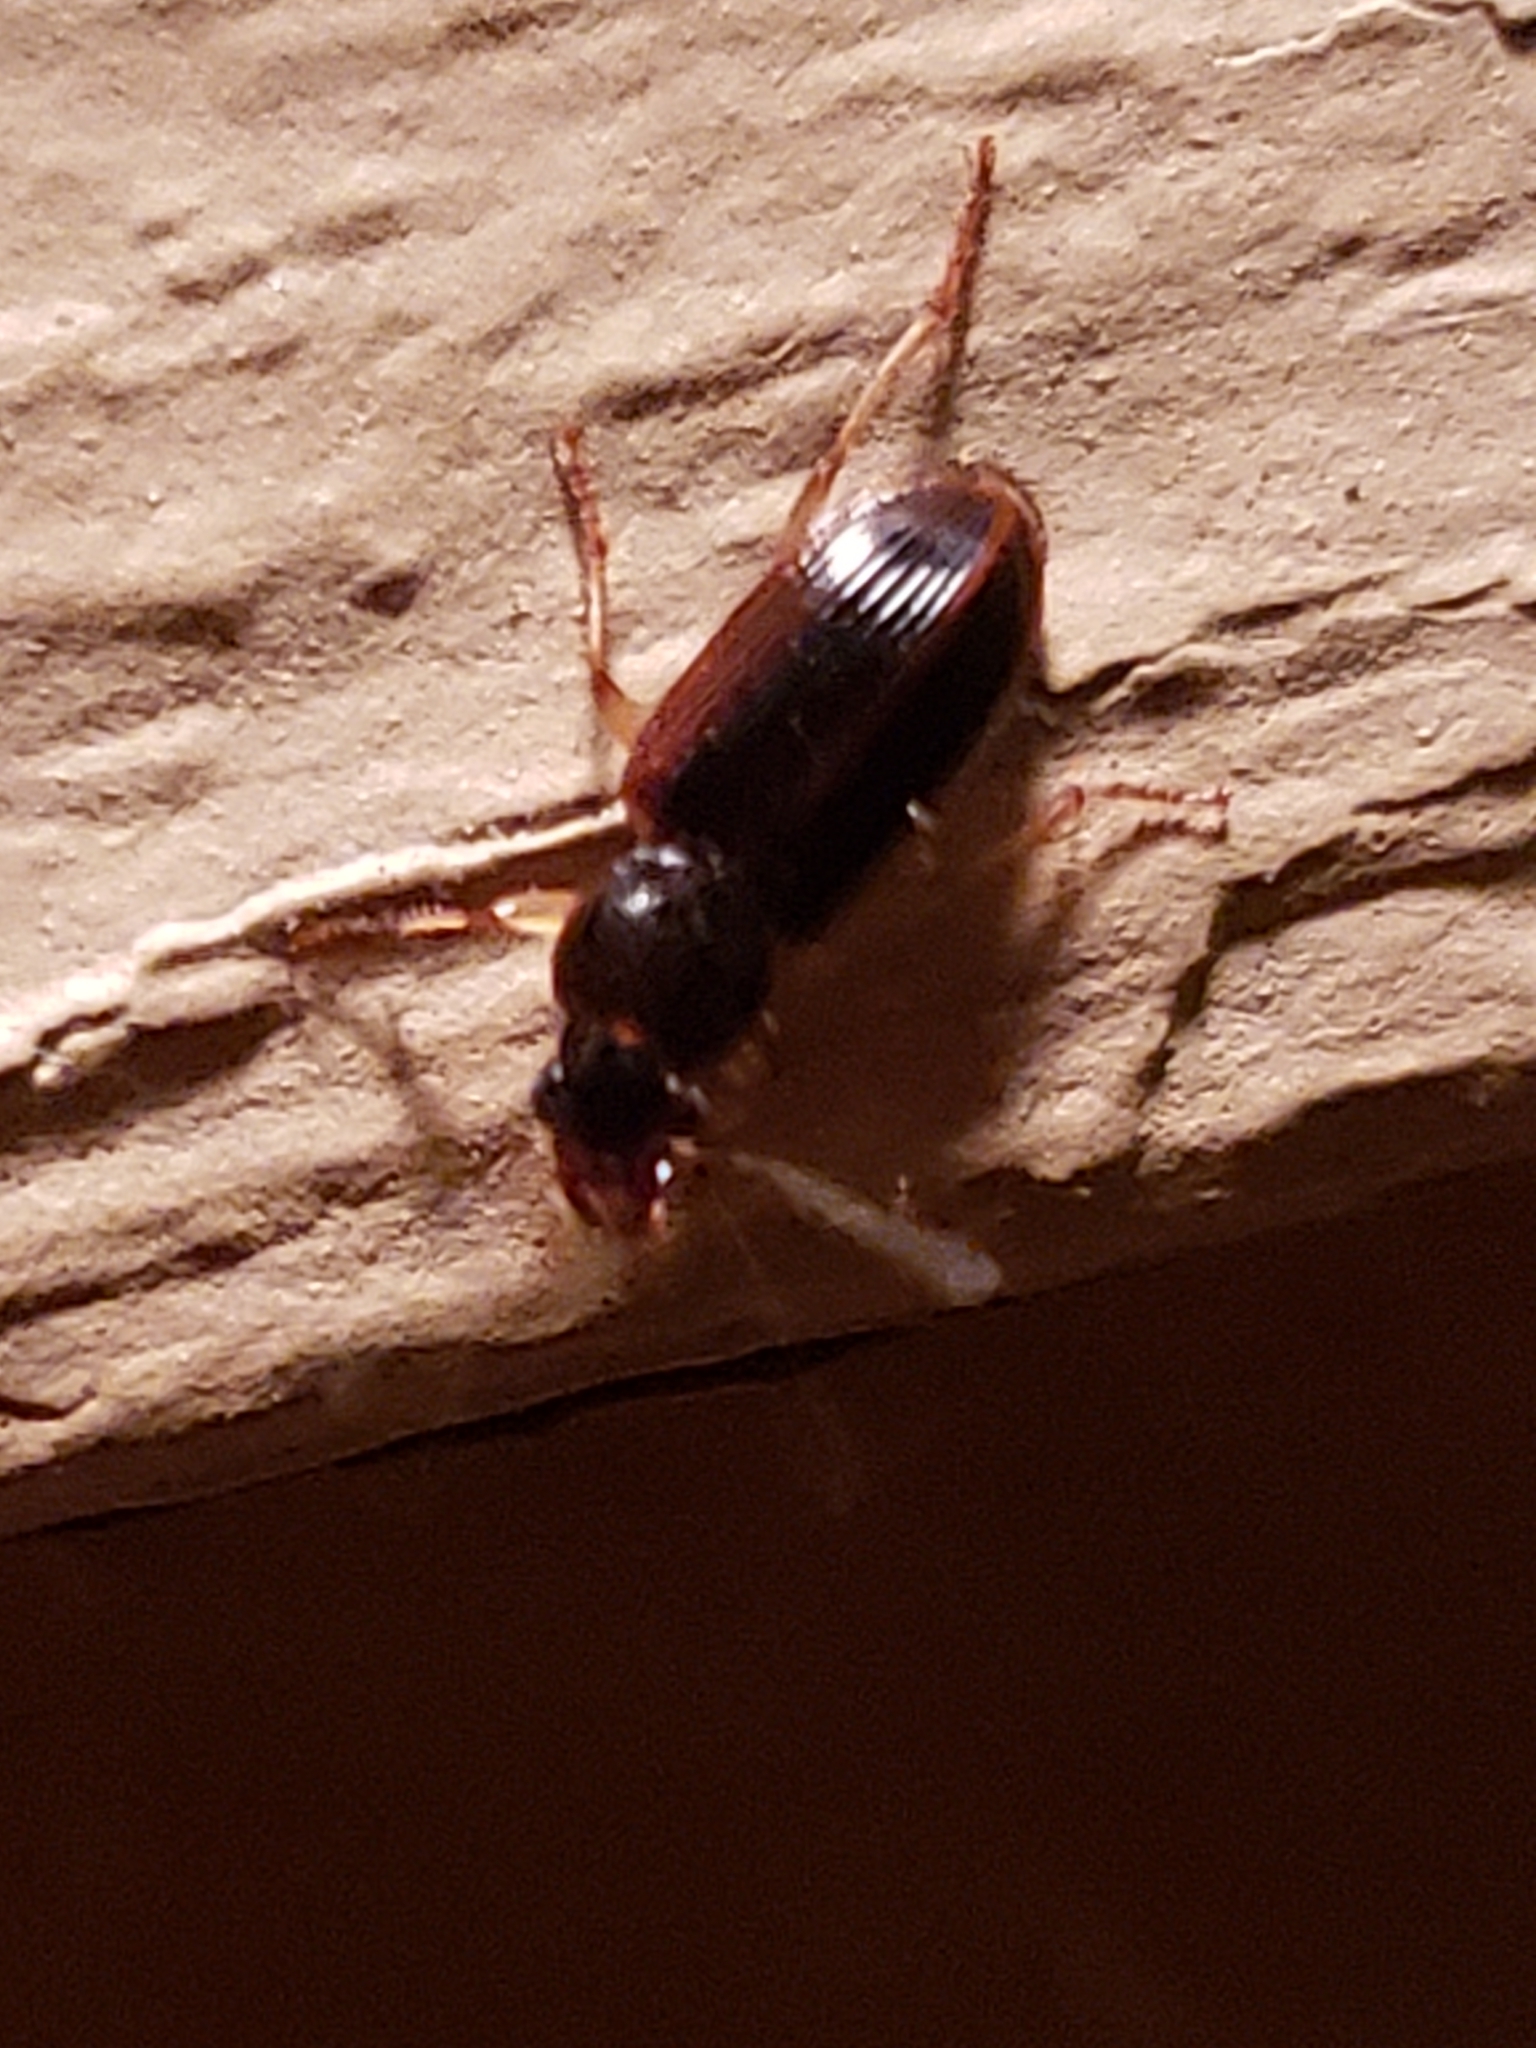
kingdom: Animalia
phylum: Arthropoda
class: Insecta
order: Coleoptera
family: Carabidae
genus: Stenolophus
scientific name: Stenolophus ochropezus
